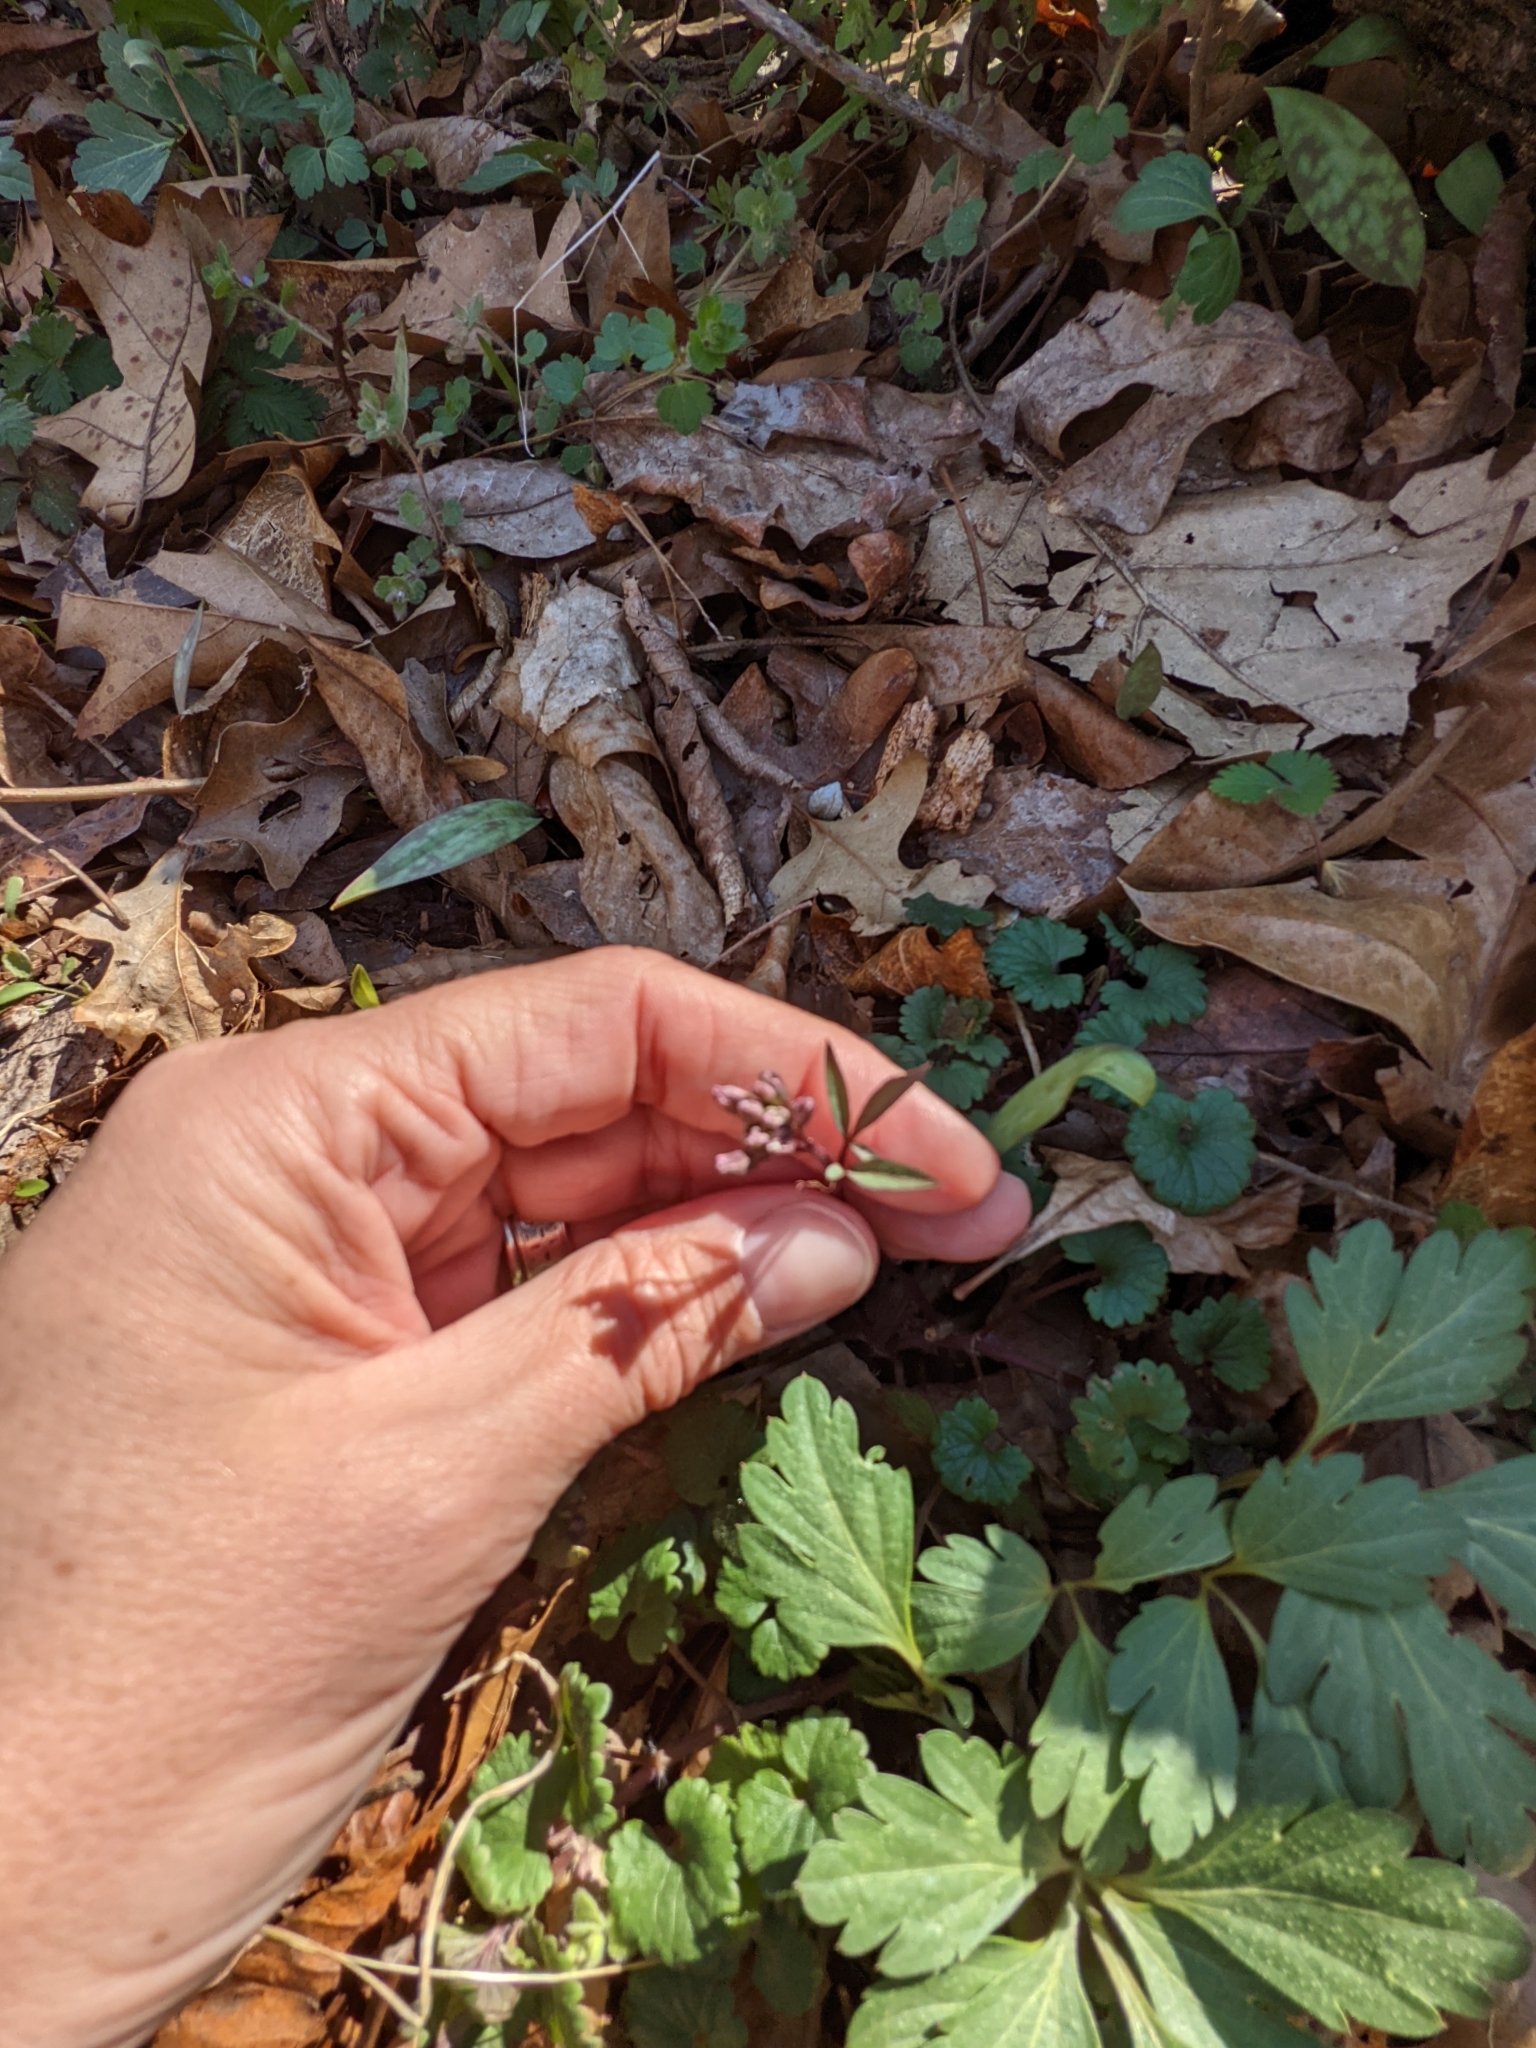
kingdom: Plantae
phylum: Tracheophyta
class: Magnoliopsida
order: Brassicales
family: Brassicaceae
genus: Cardamine
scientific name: Cardamine angustata
